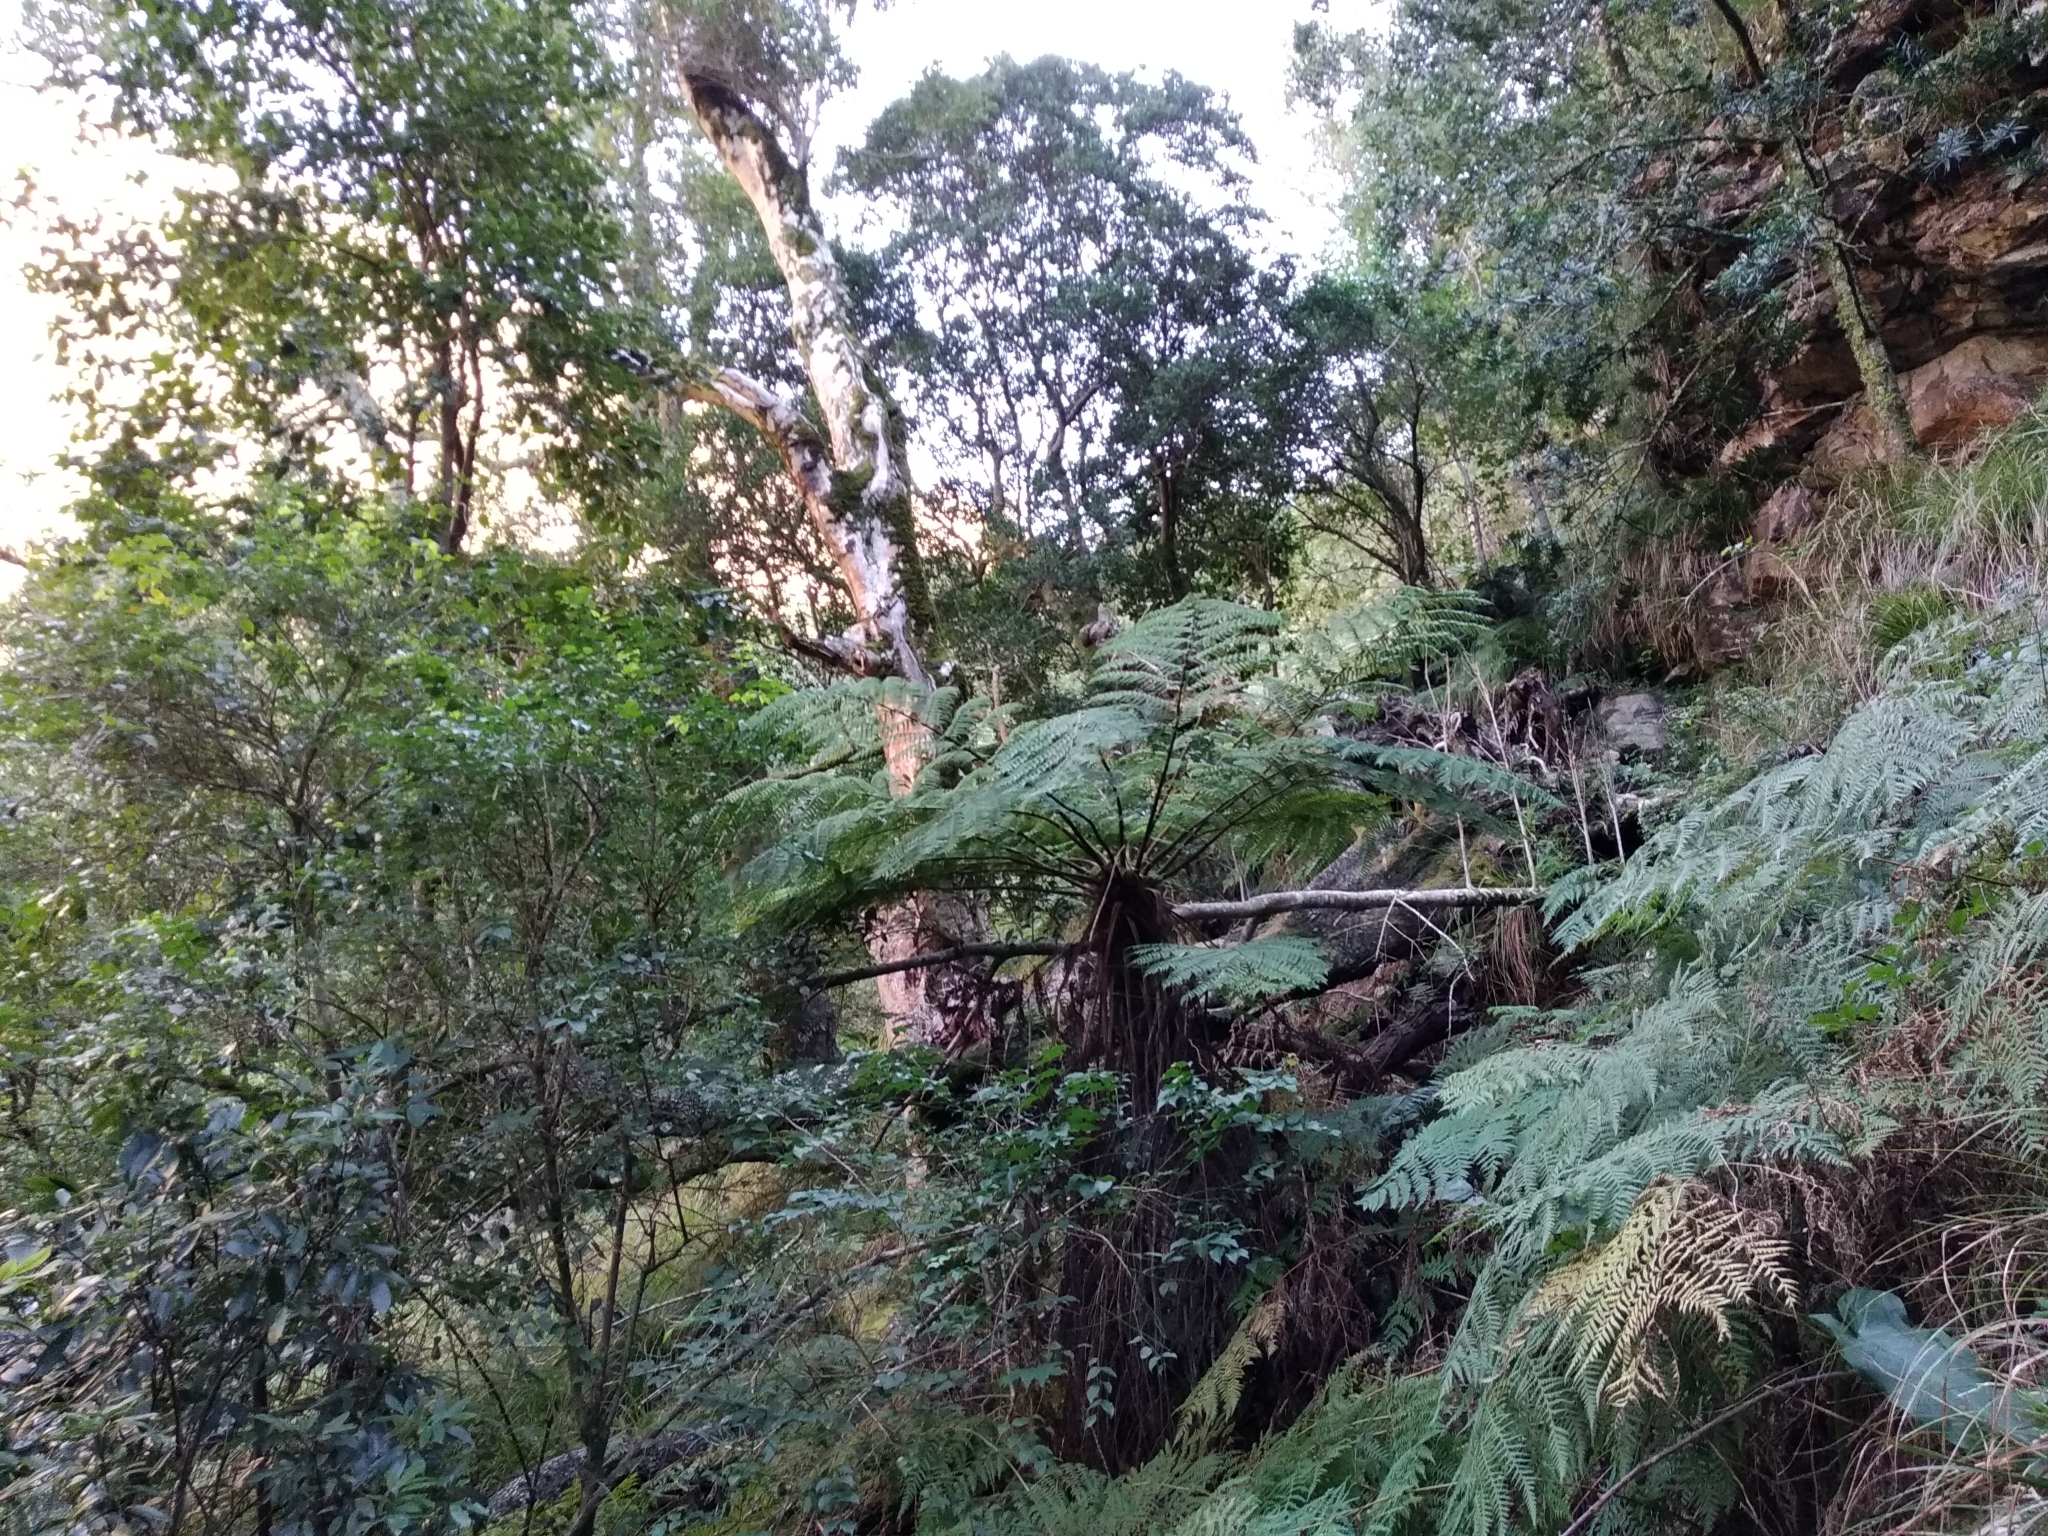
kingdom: Plantae
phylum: Tracheophyta
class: Polypodiopsida
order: Cyatheales
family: Cyatheaceae
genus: Gymnosphaera
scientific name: Gymnosphaera capensis
